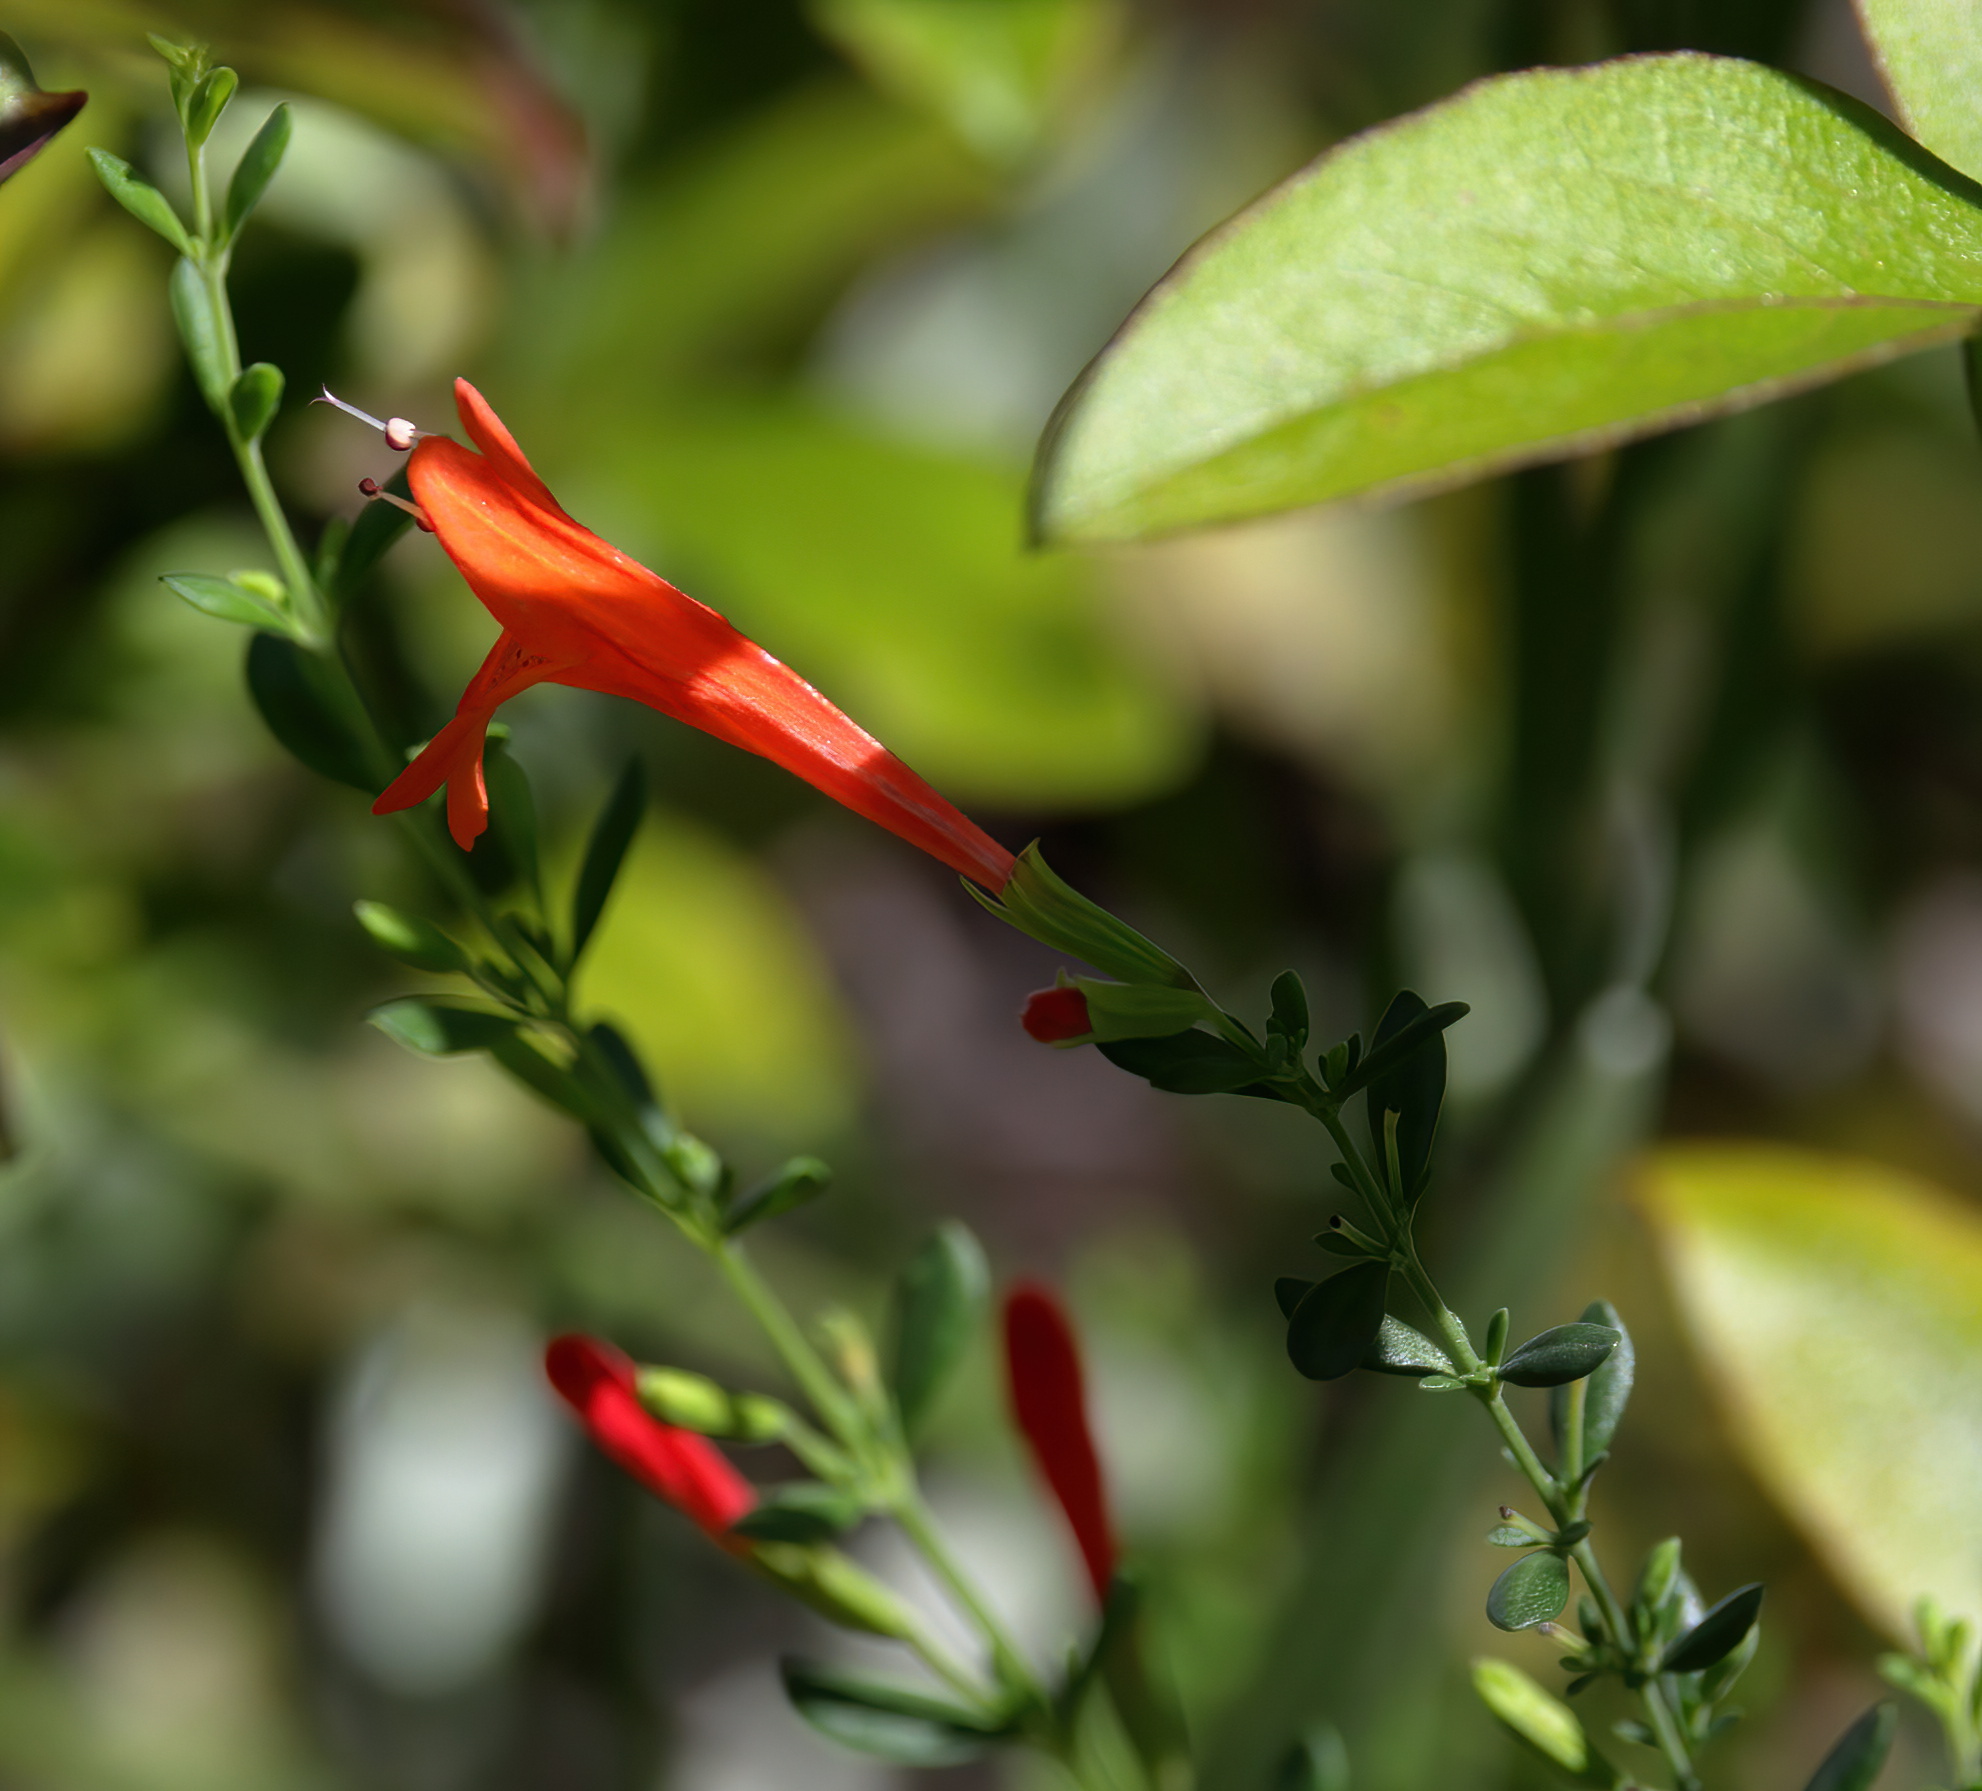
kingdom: Plantae
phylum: Tracheophyta
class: Magnoliopsida
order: Lamiales
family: Lamiaceae
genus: Clinopodium
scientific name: Clinopodium coccineum
